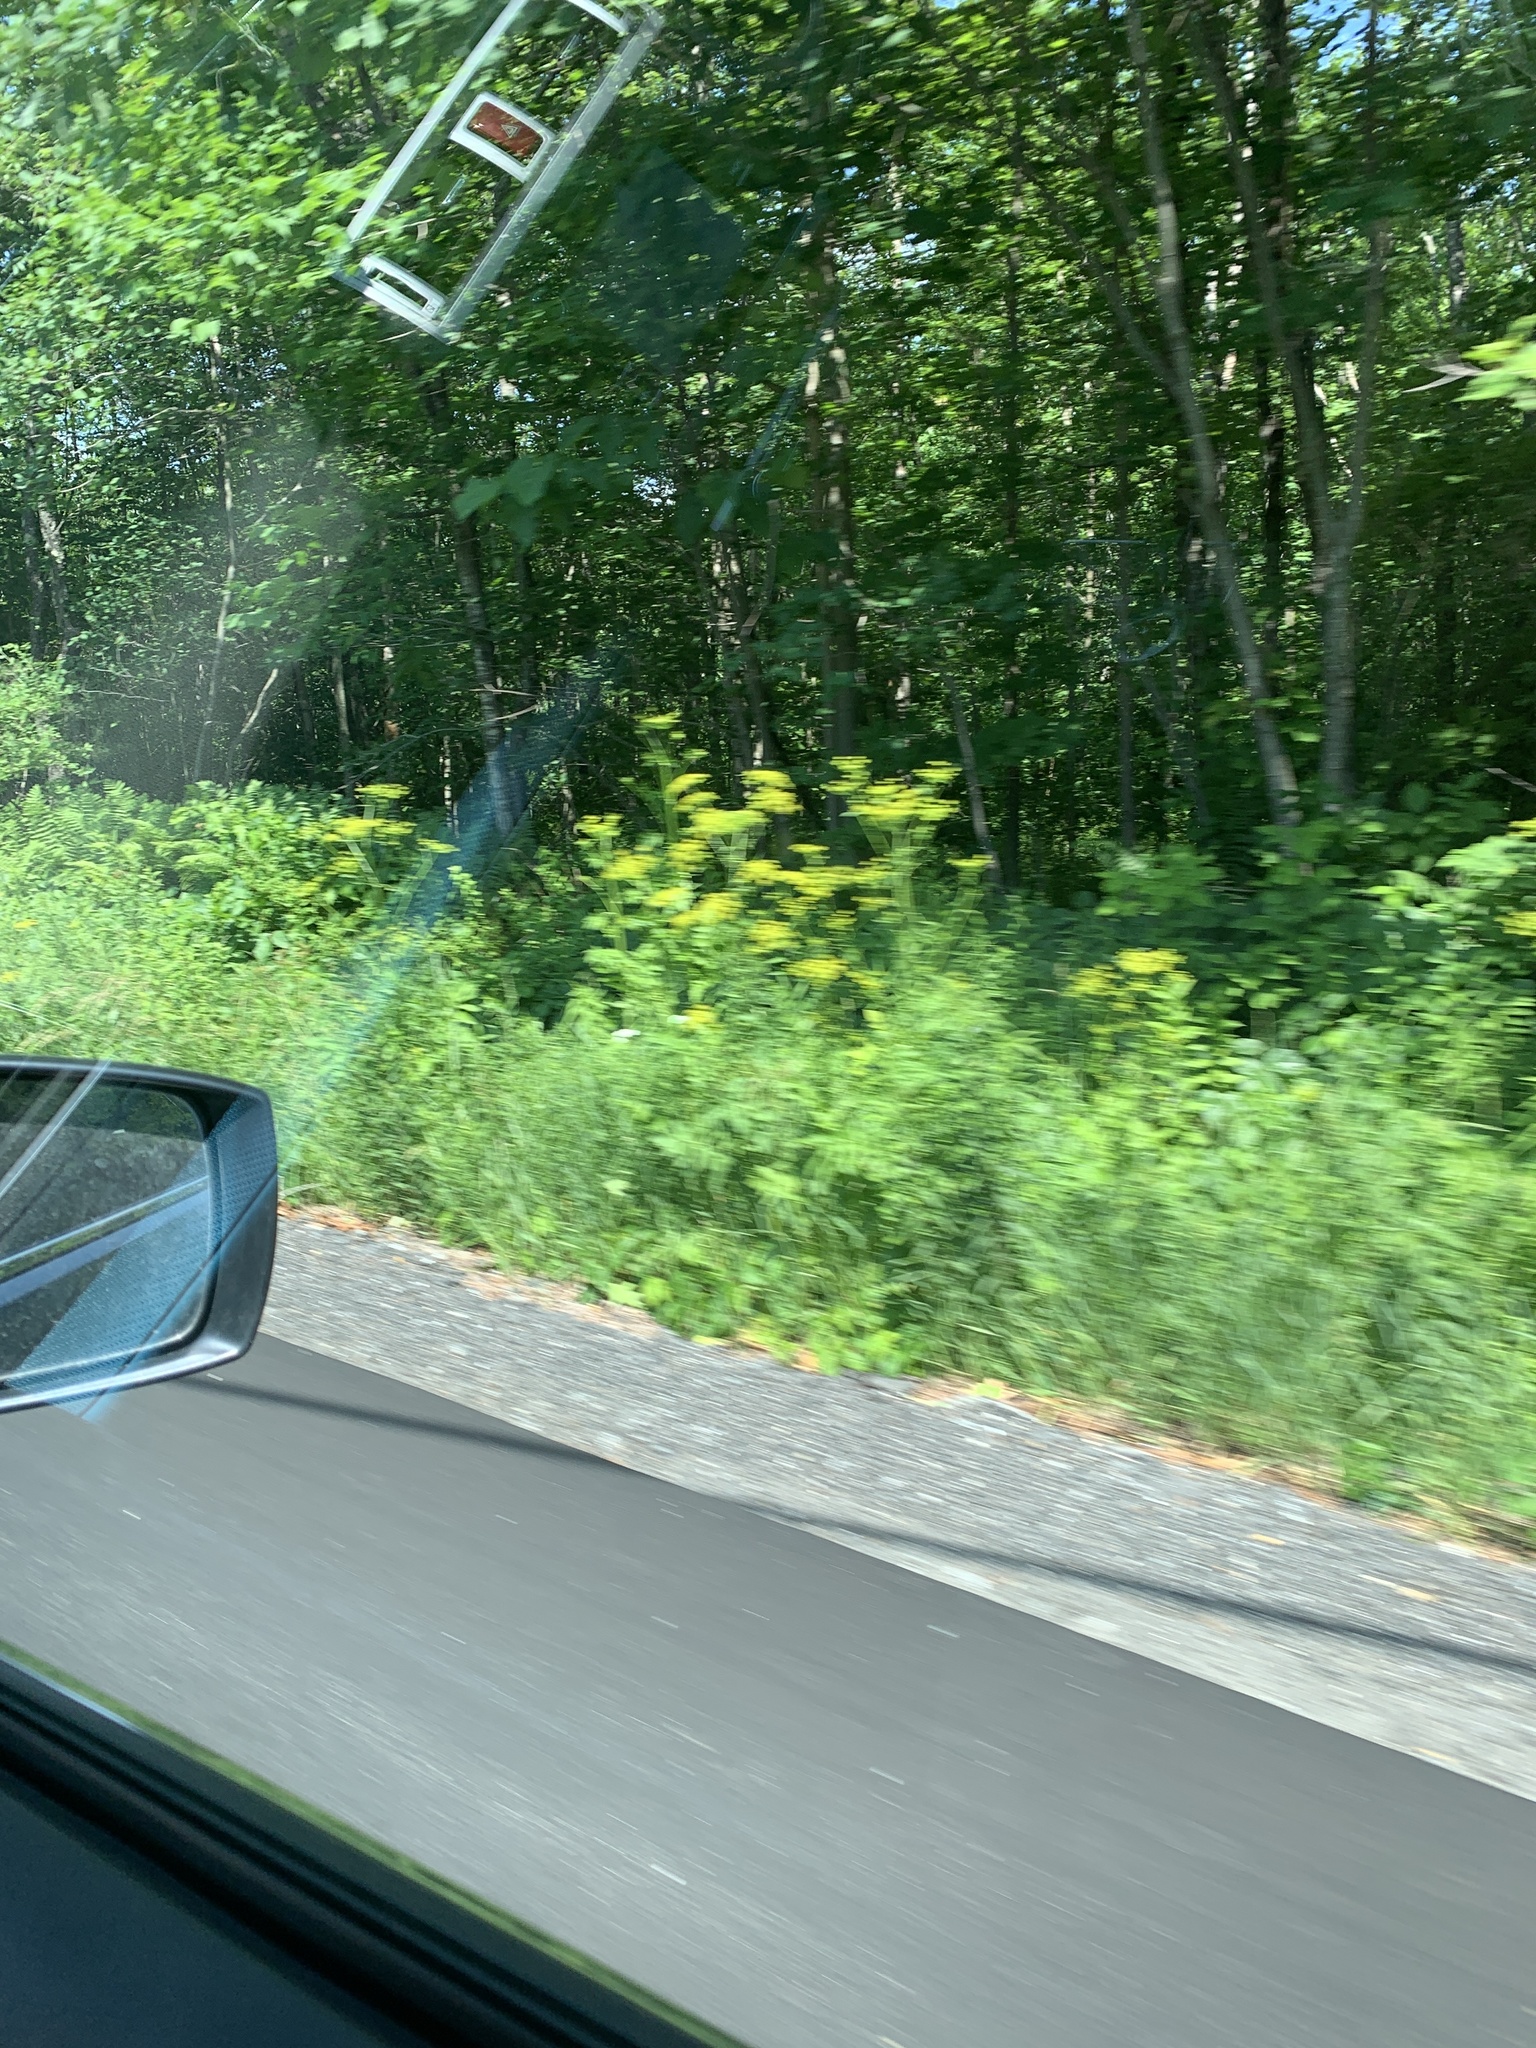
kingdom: Plantae
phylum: Tracheophyta
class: Magnoliopsida
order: Apiales
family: Apiaceae
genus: Pastinaca
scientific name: Pastinaca sativa
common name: Wild parsnip
